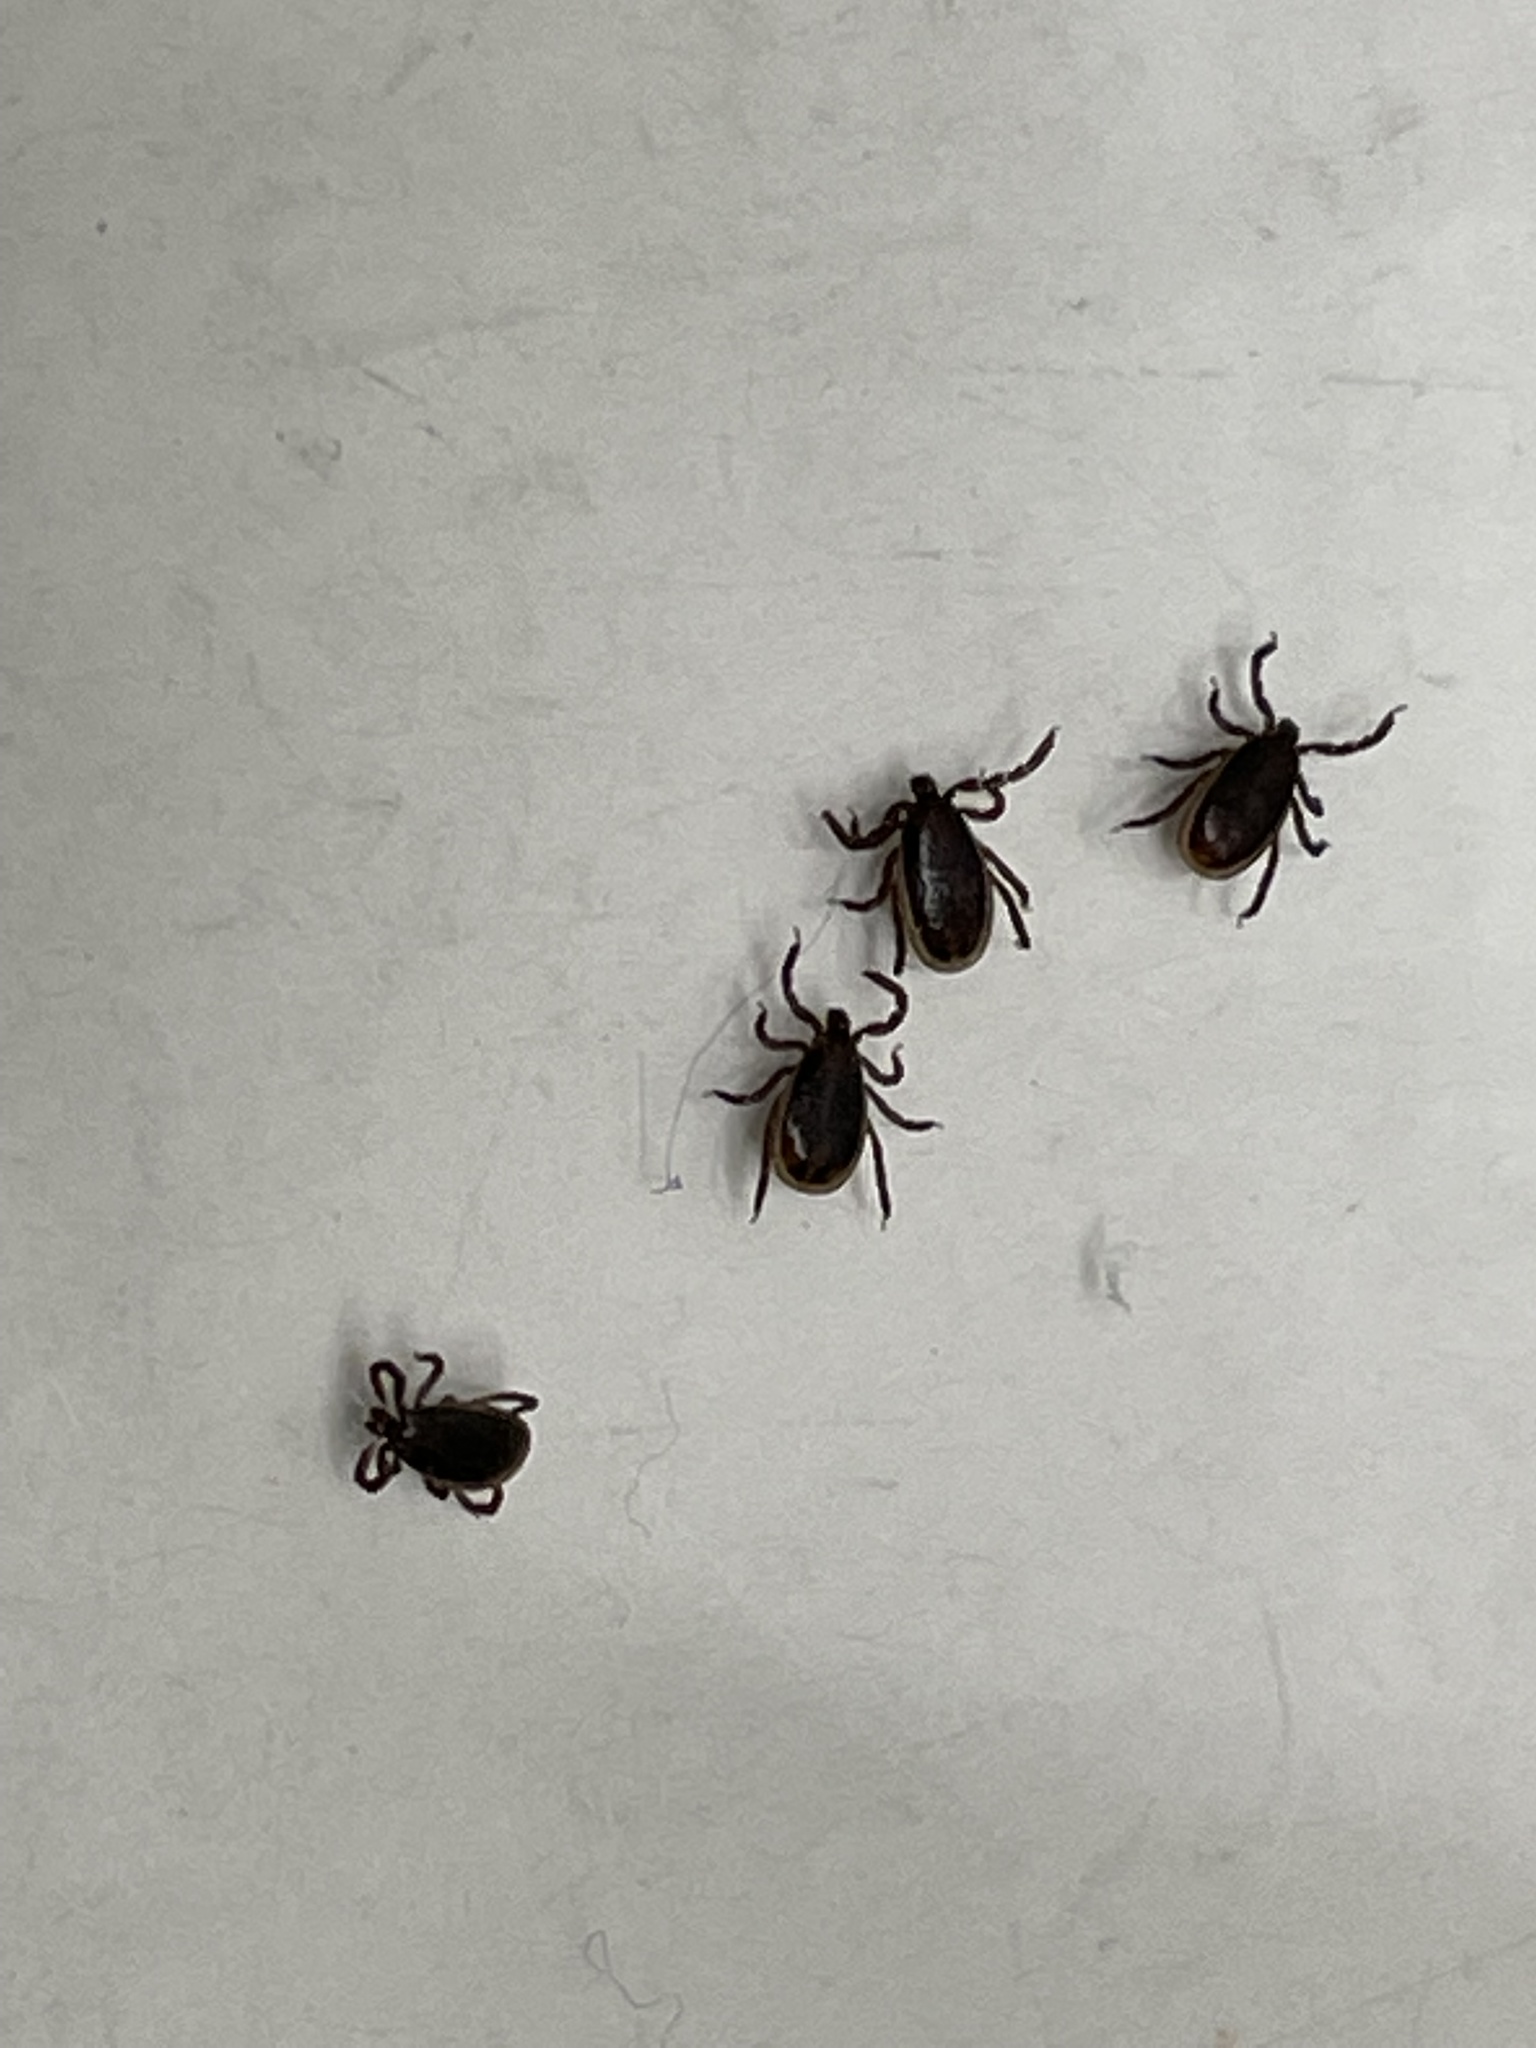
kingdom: Animalia
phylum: Arthropoda
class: Arachnida
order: Ixodida
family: Ixodidae
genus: Ixodes
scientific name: Ixodes scapularis
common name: Black legged tick
